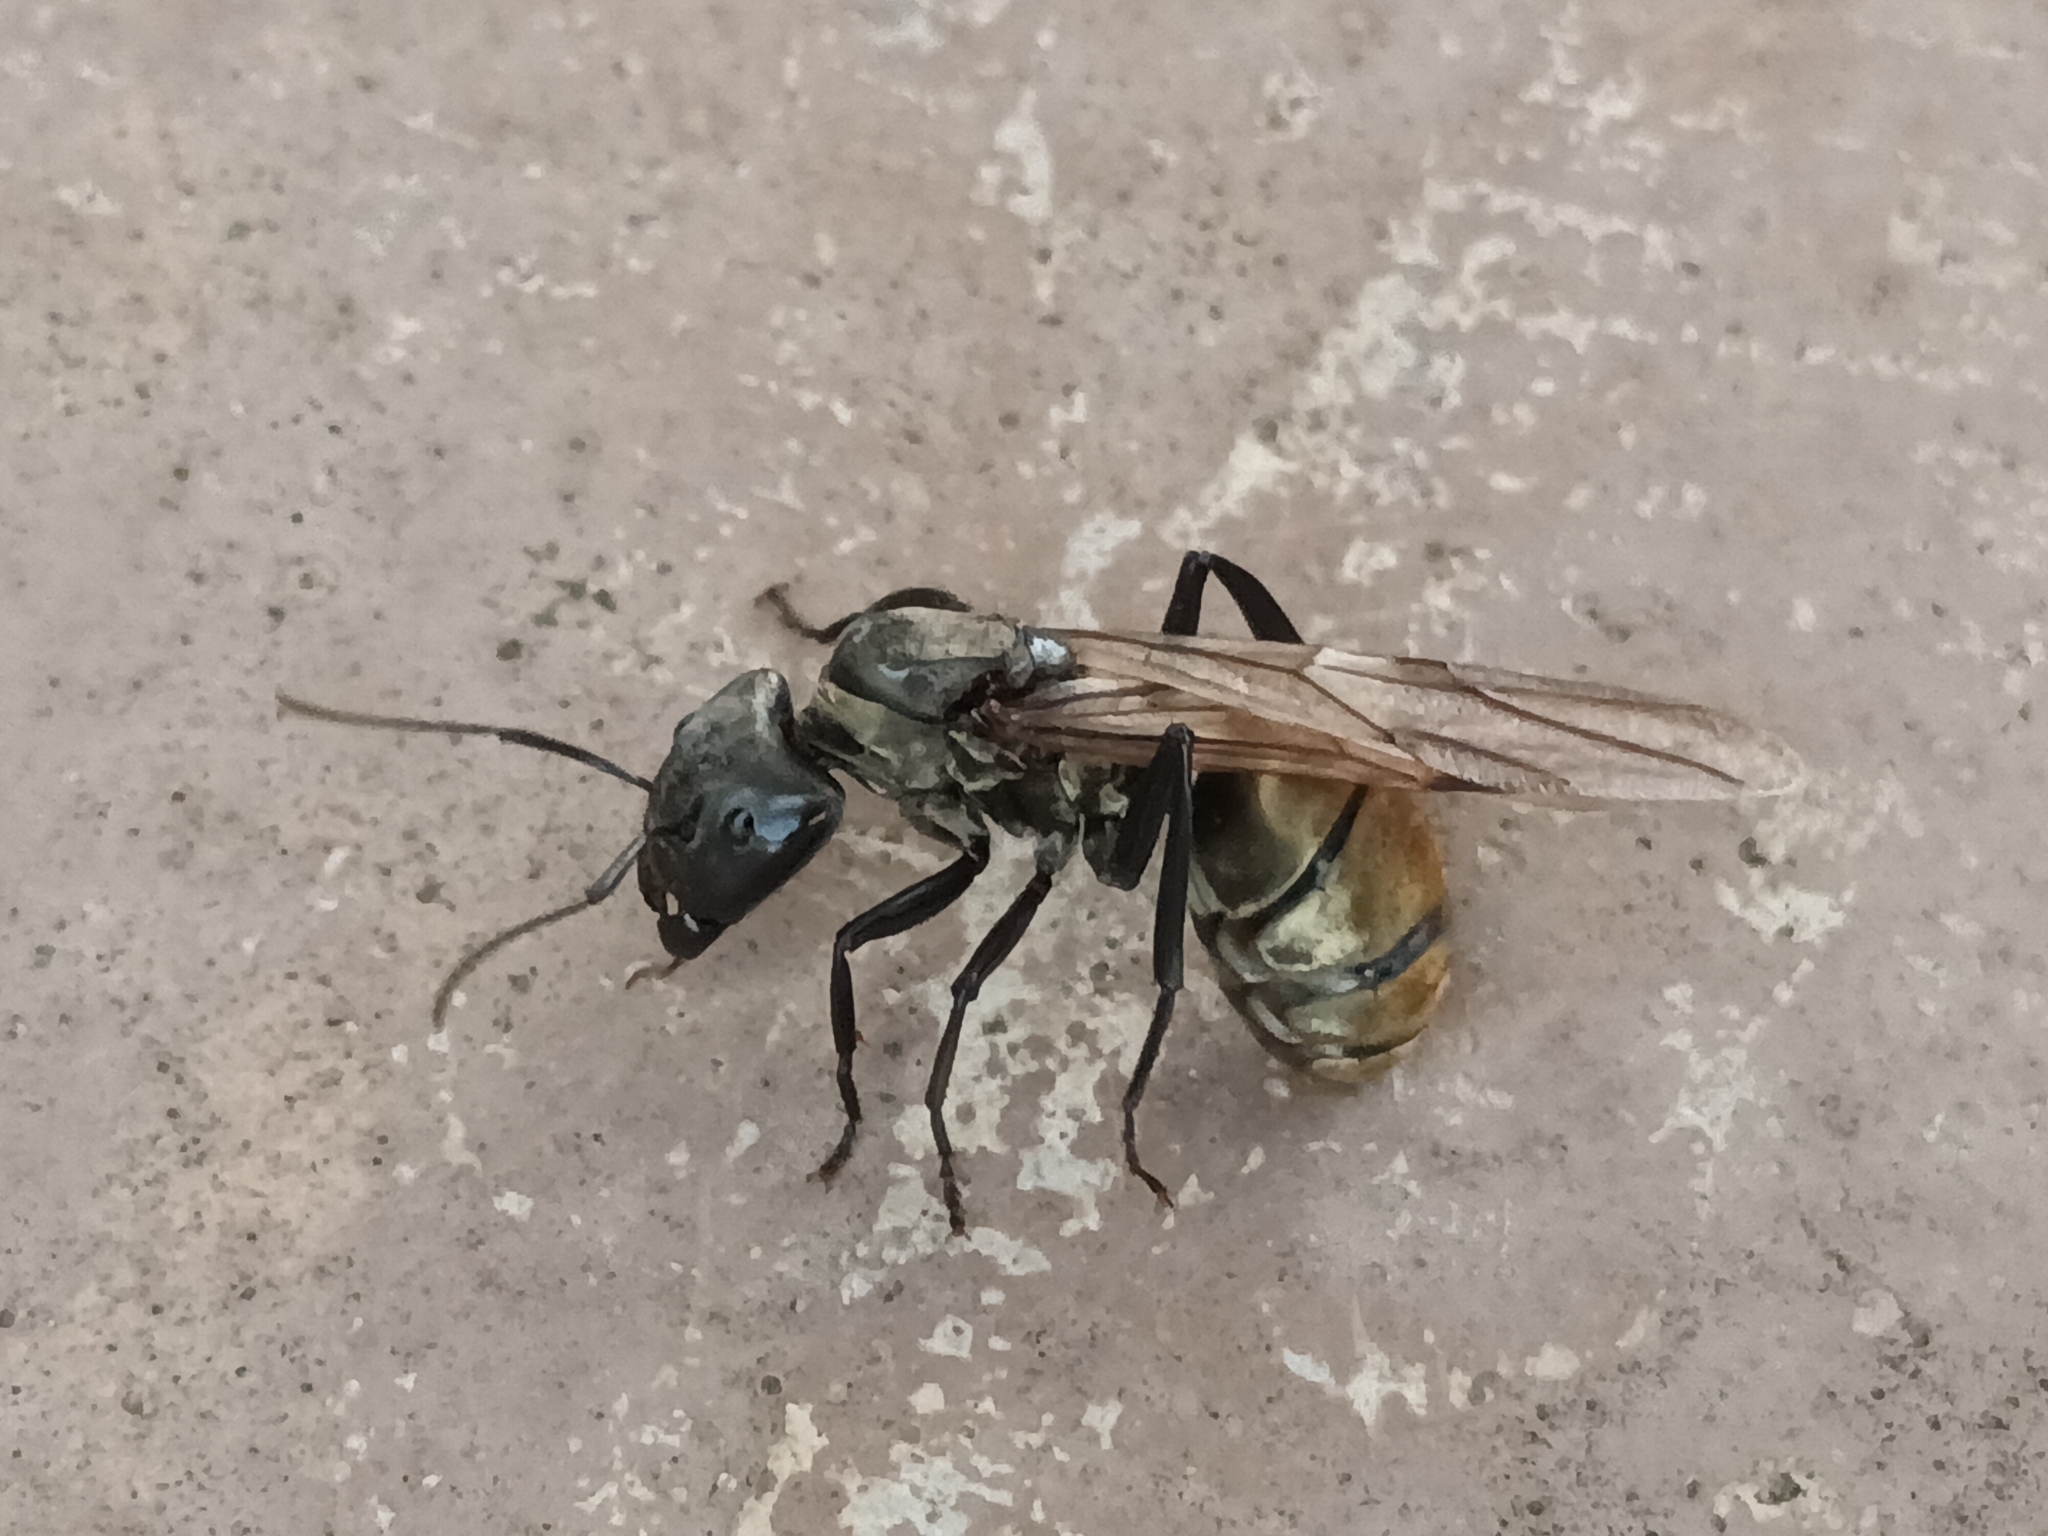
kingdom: Animalia
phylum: Arthropoda
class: Insecta
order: Hymenoptera
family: Formicidae
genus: Camponotus
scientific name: Camponotus sericeiventris
